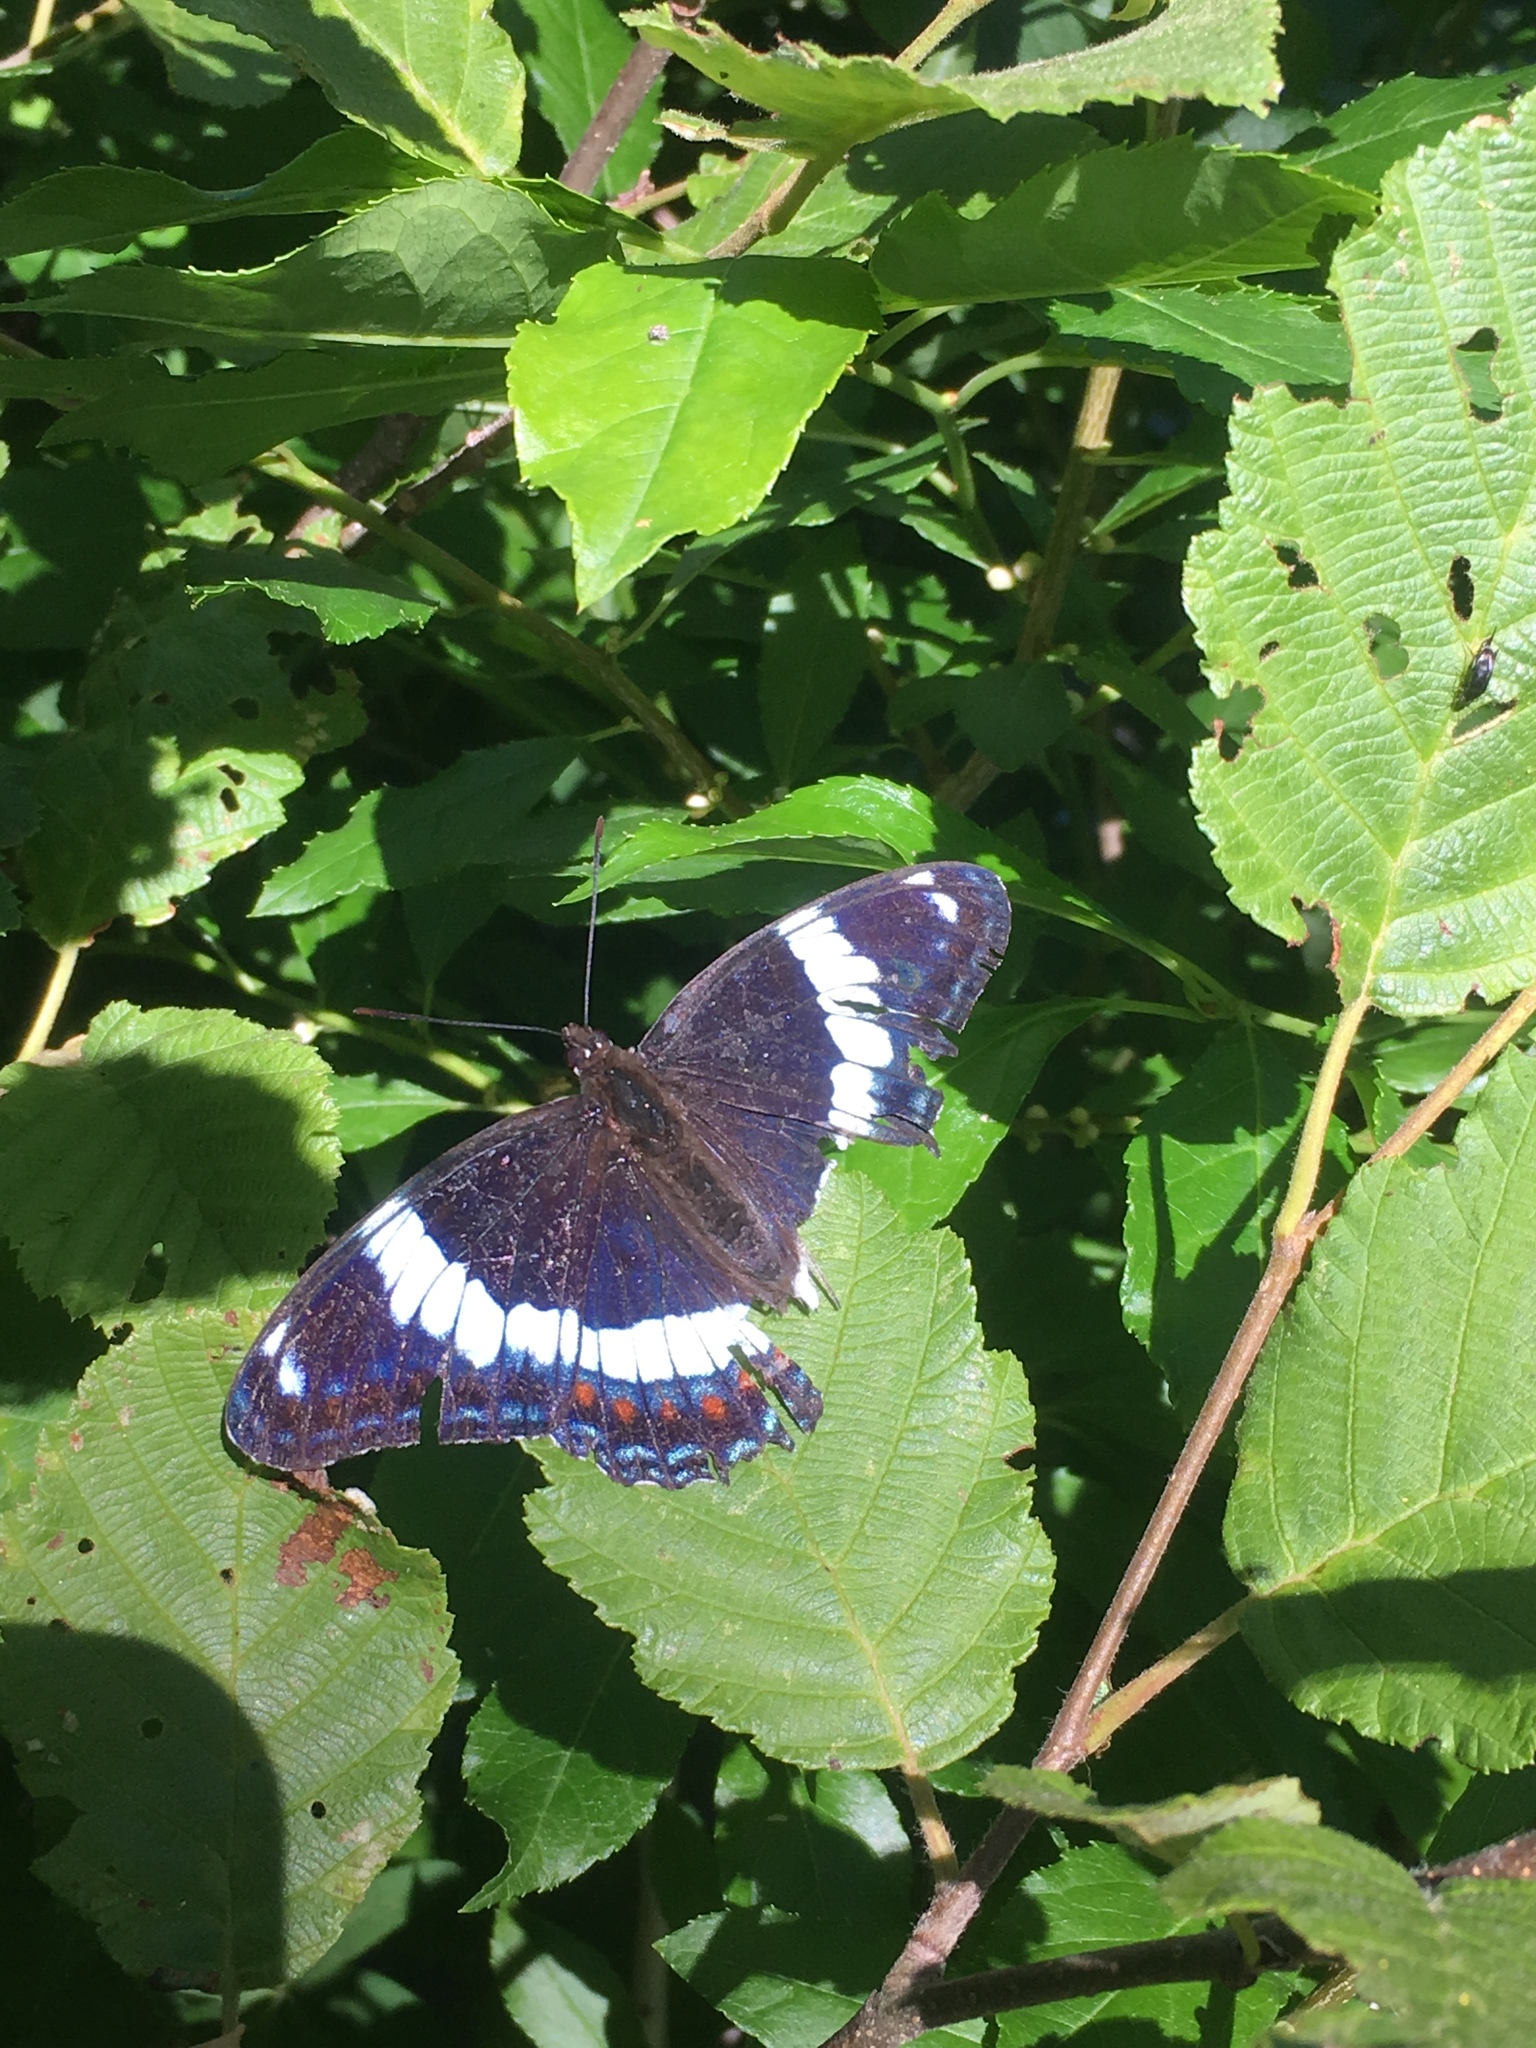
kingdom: Animalia
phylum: Arthropoda
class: Insecta
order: Lepidoptera
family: Nymphalidae
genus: Limenitis
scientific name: Limenitis arthemis
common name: Red-spotted admiral
